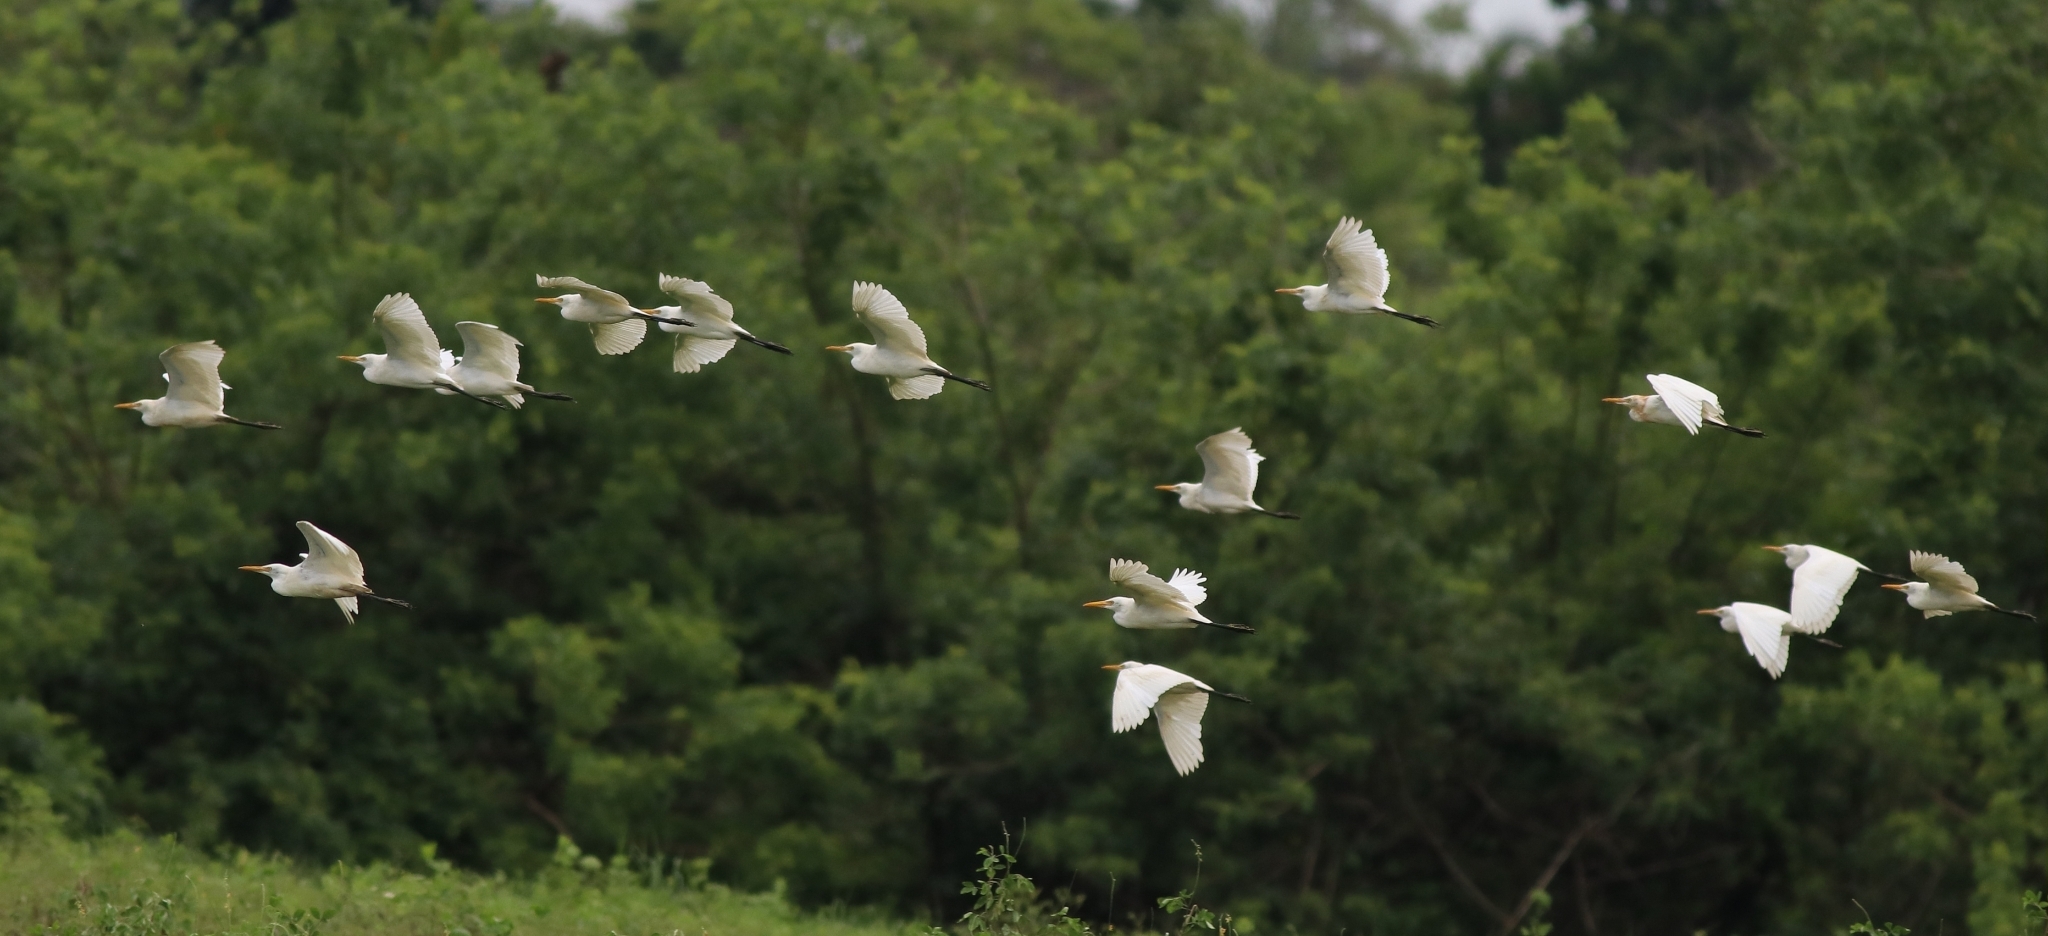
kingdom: Animalia
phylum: Chordata
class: Aves
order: Pelecaniformes
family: Ardeidae
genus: Bubulcus
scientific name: Bubulcus coromandus
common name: Eastern cattle egret
